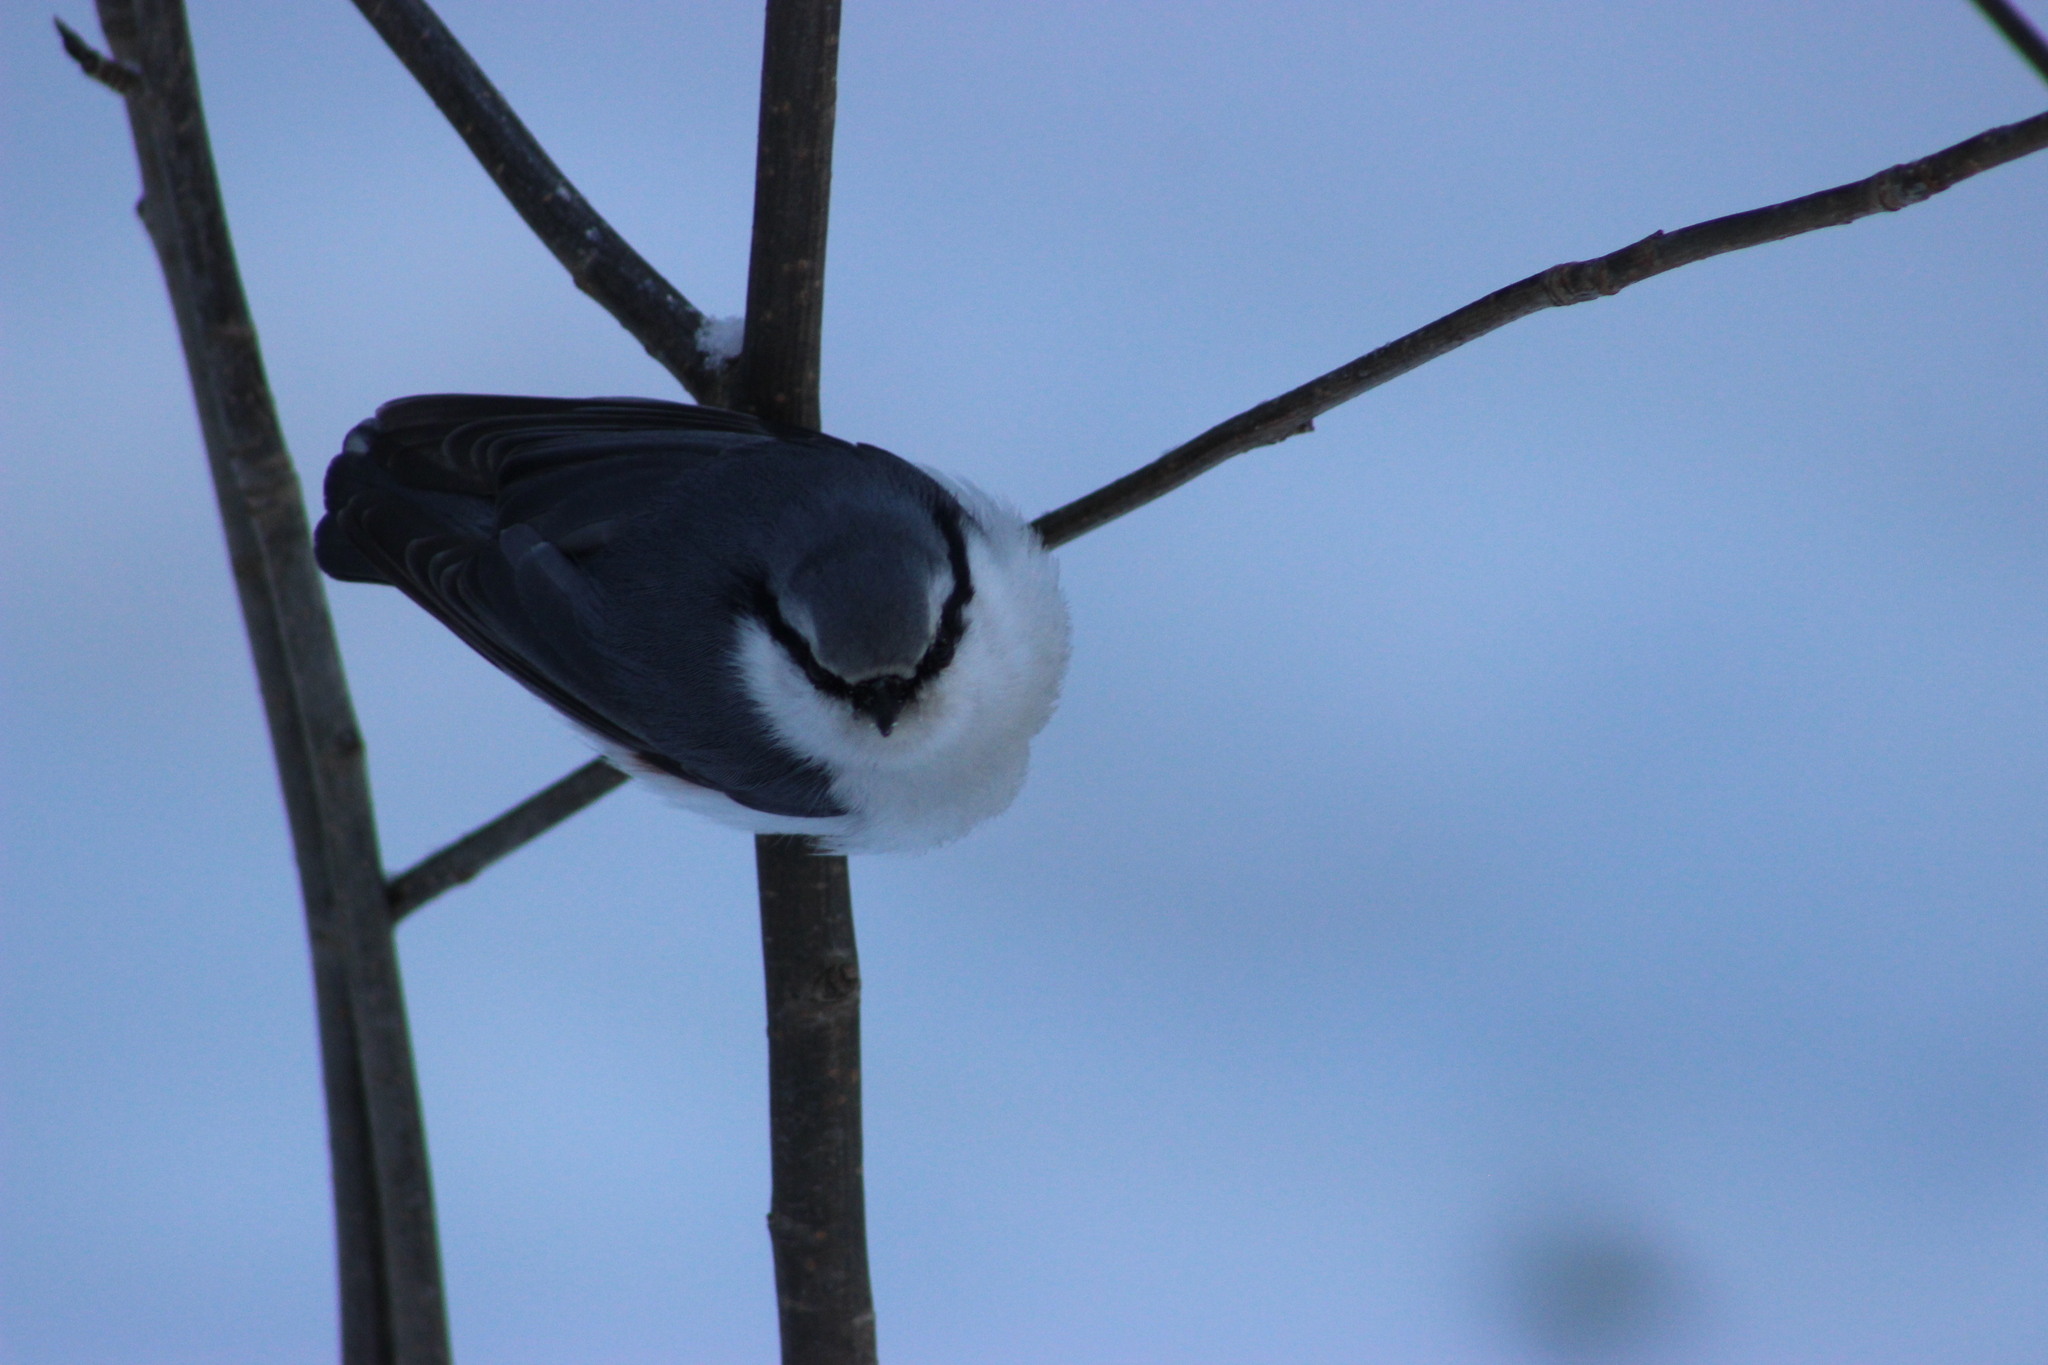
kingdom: Animalia
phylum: Chordata
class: Aves
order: Passeriformes
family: Sittidae
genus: Sitta
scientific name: Sitta europaea
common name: Eurasian nuthatch
